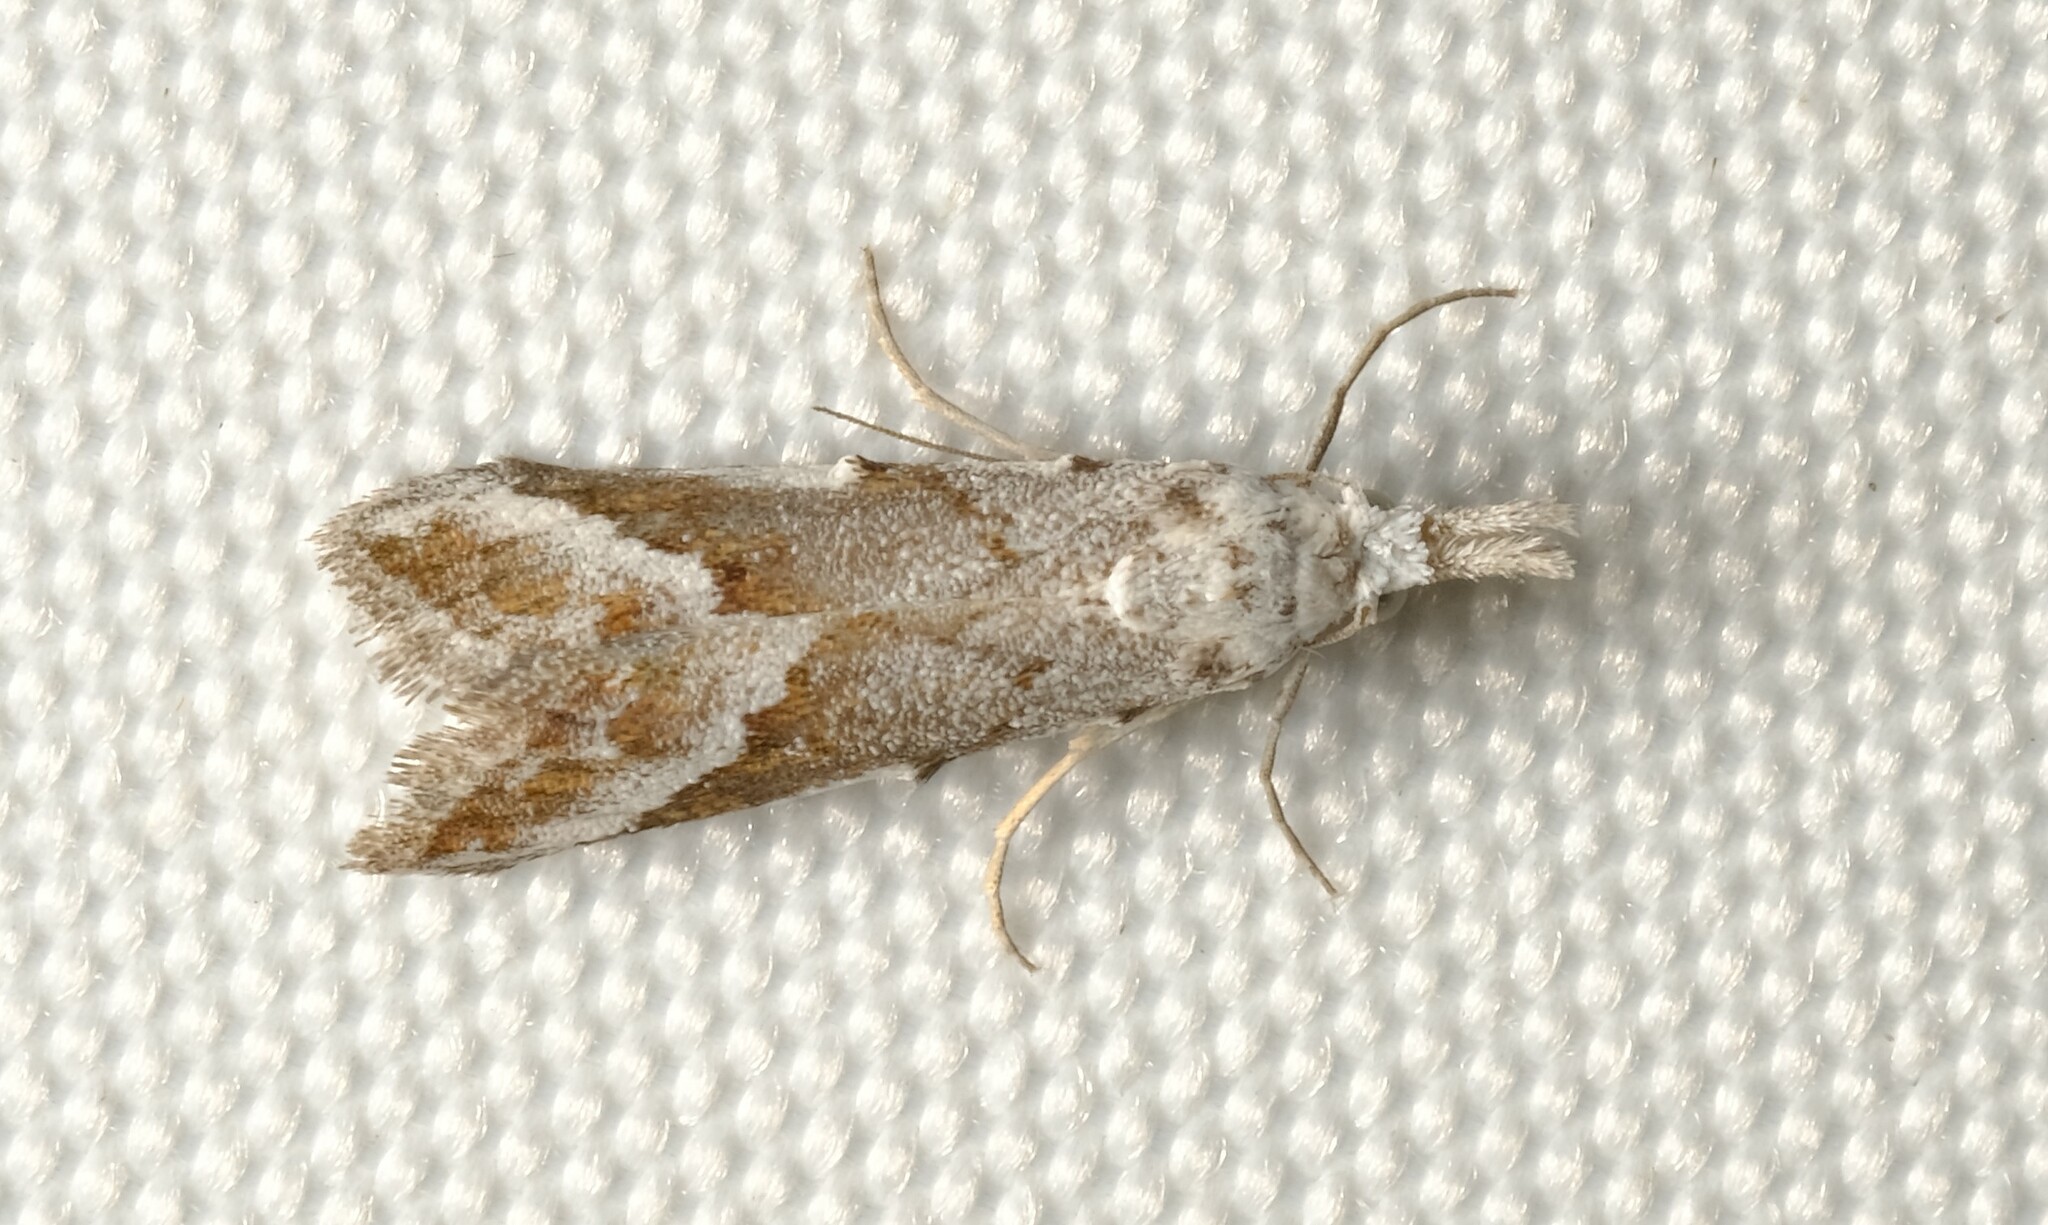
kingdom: Animalia
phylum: Arthropoda
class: Insecta
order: Lepidoptera
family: Nolidae
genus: Nola
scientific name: Nola albalis
